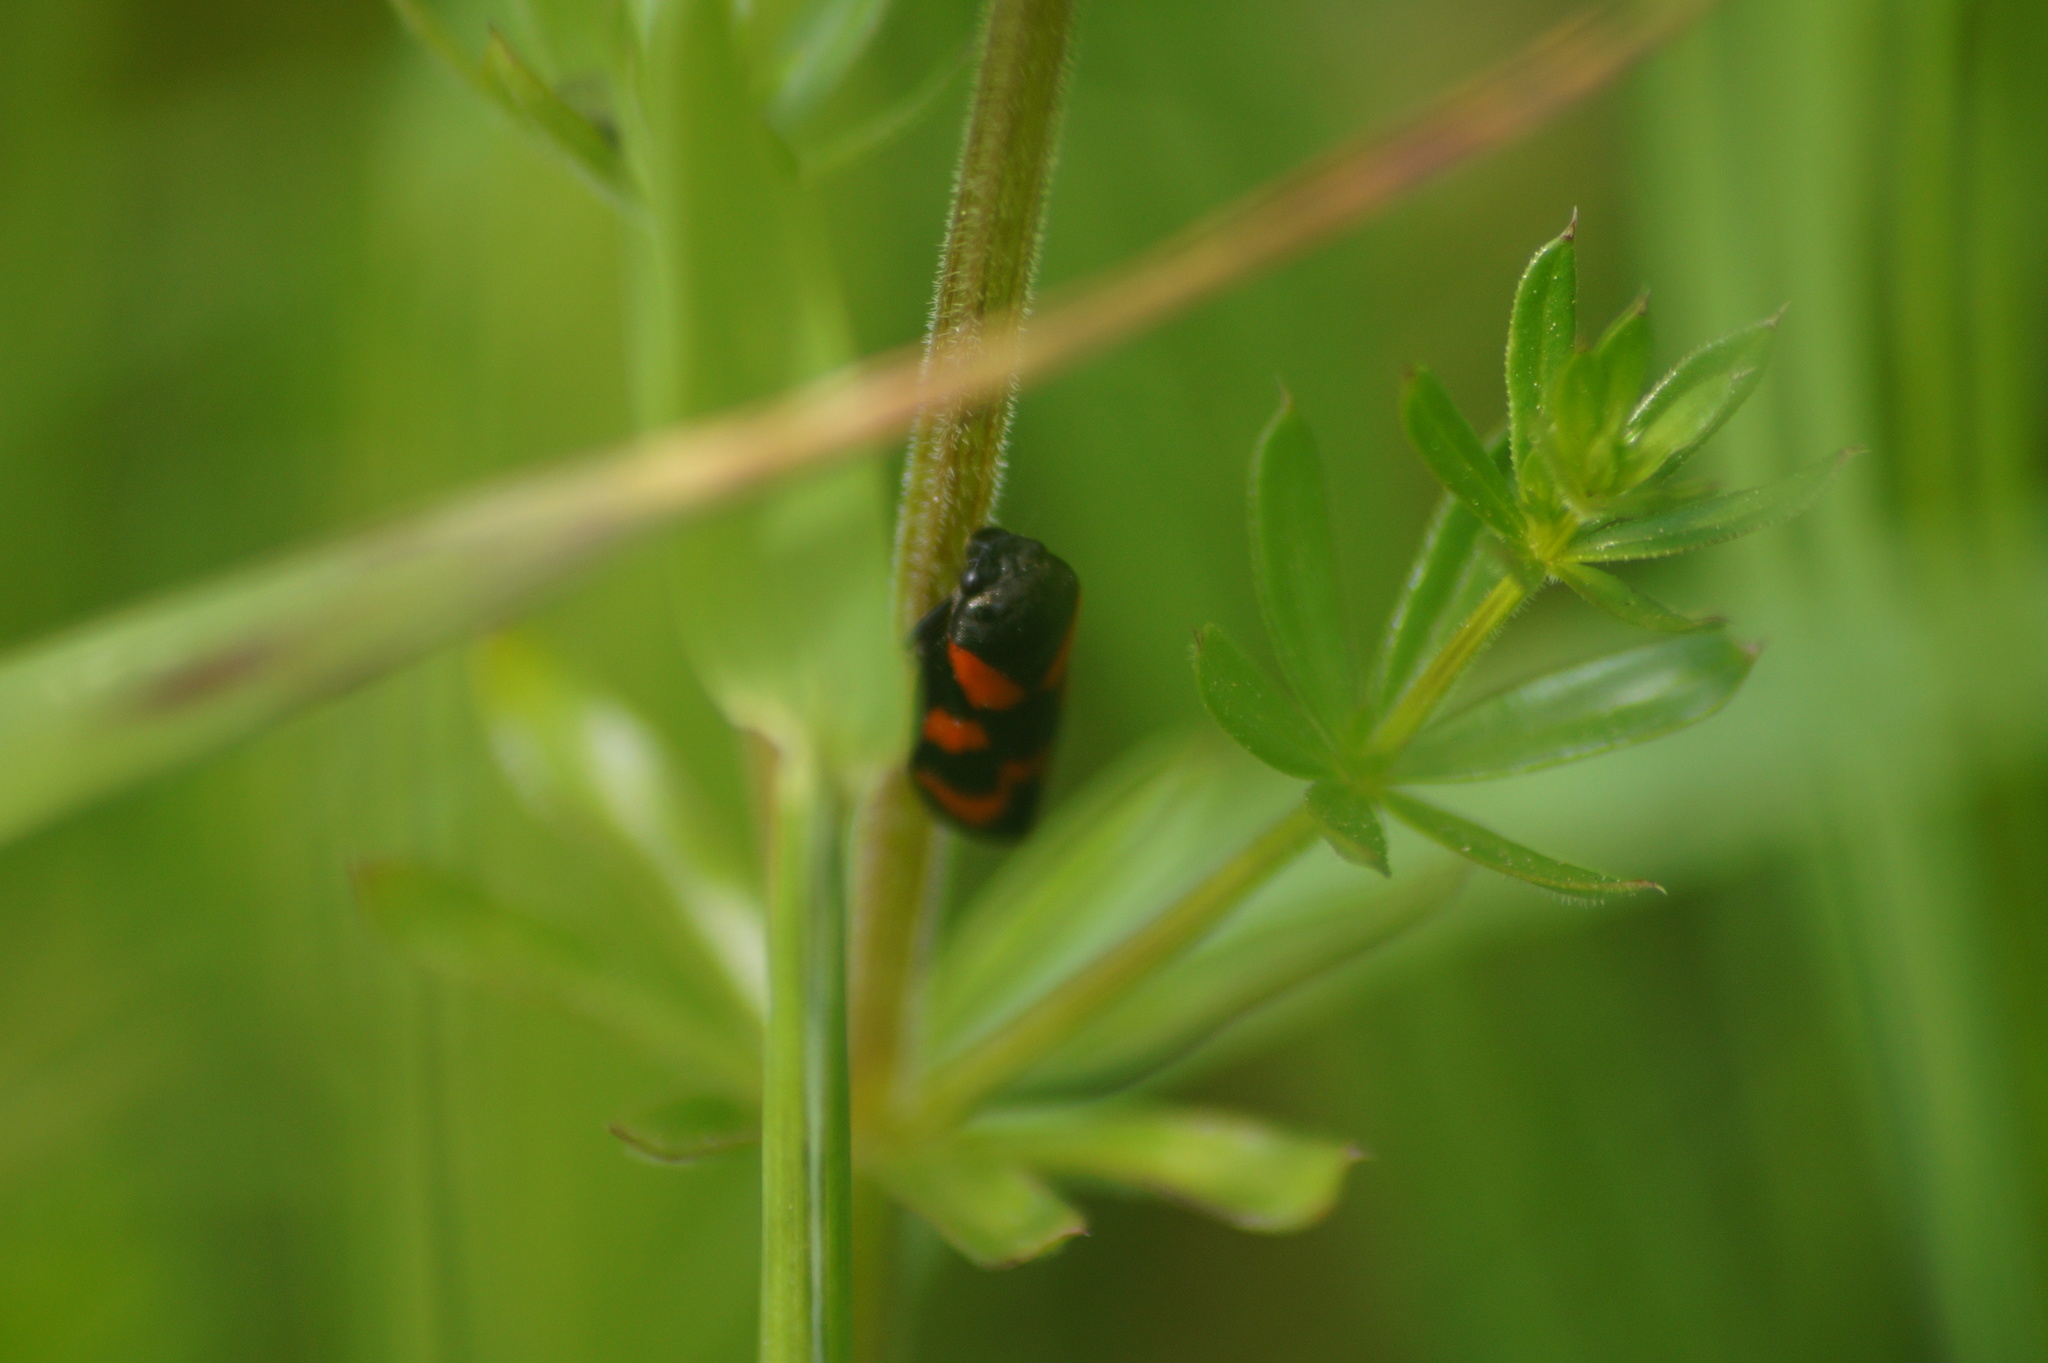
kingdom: Animalia
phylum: Arthropoda
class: Insecta
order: Hemiptera
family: Cercopidae
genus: Cercopis
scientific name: Cercopis vulnerata
